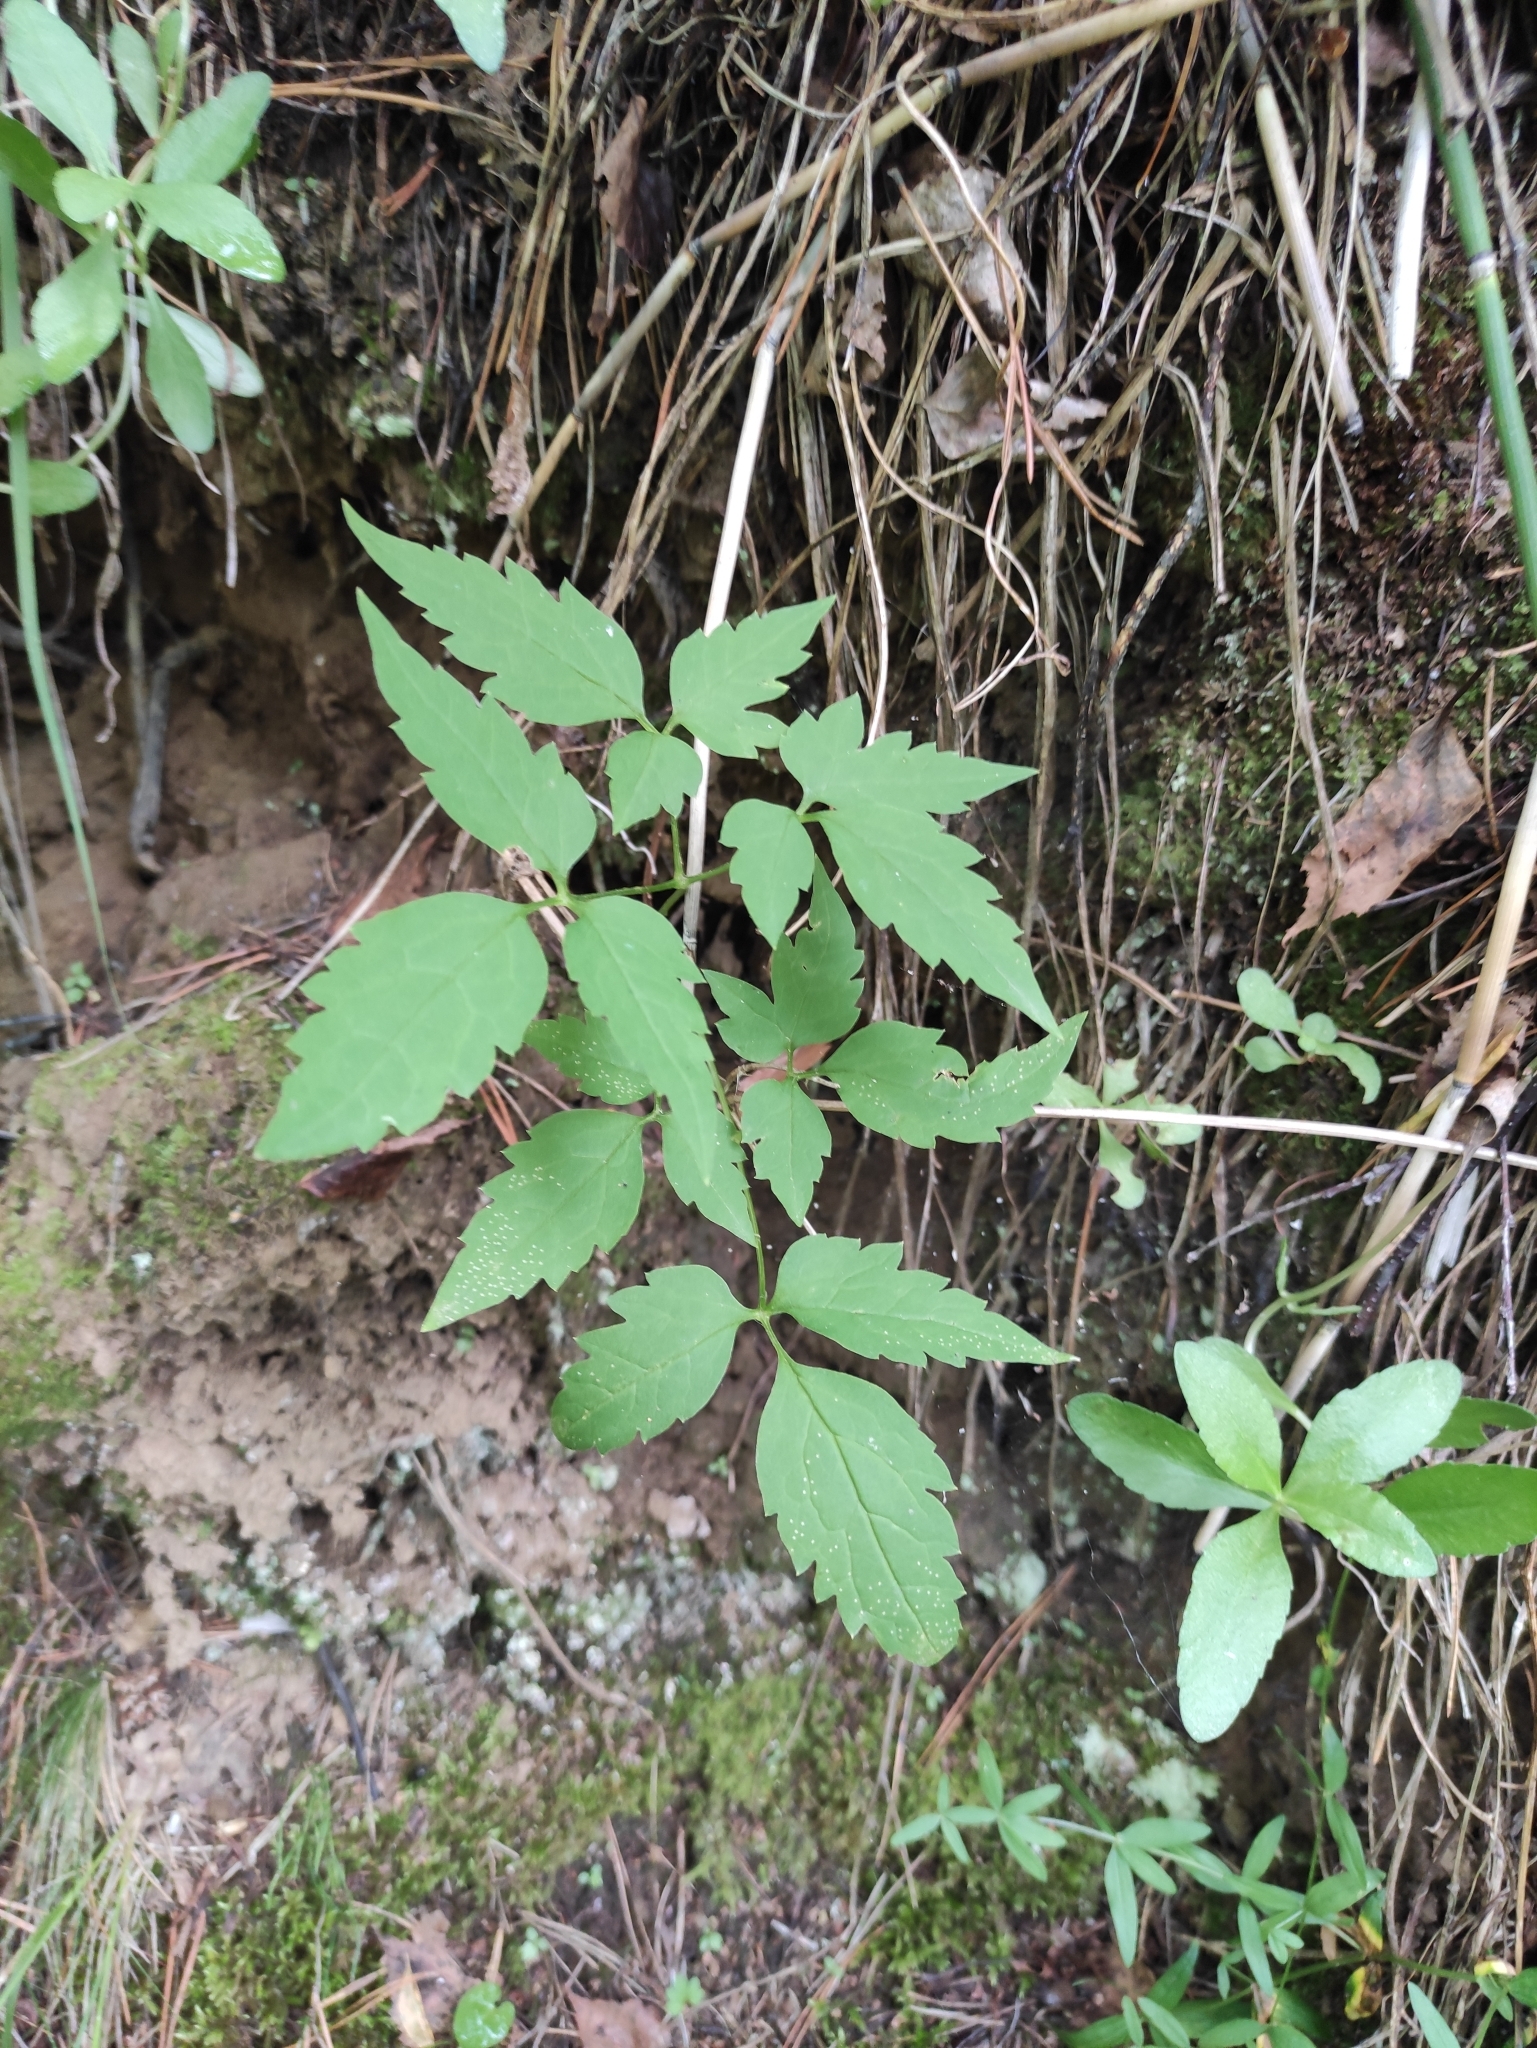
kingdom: Plantae
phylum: Tracheophyta
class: Magnoliopsida
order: Ranunculales
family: Ranunculaceae
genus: Clematis
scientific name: Clematis sibirica
